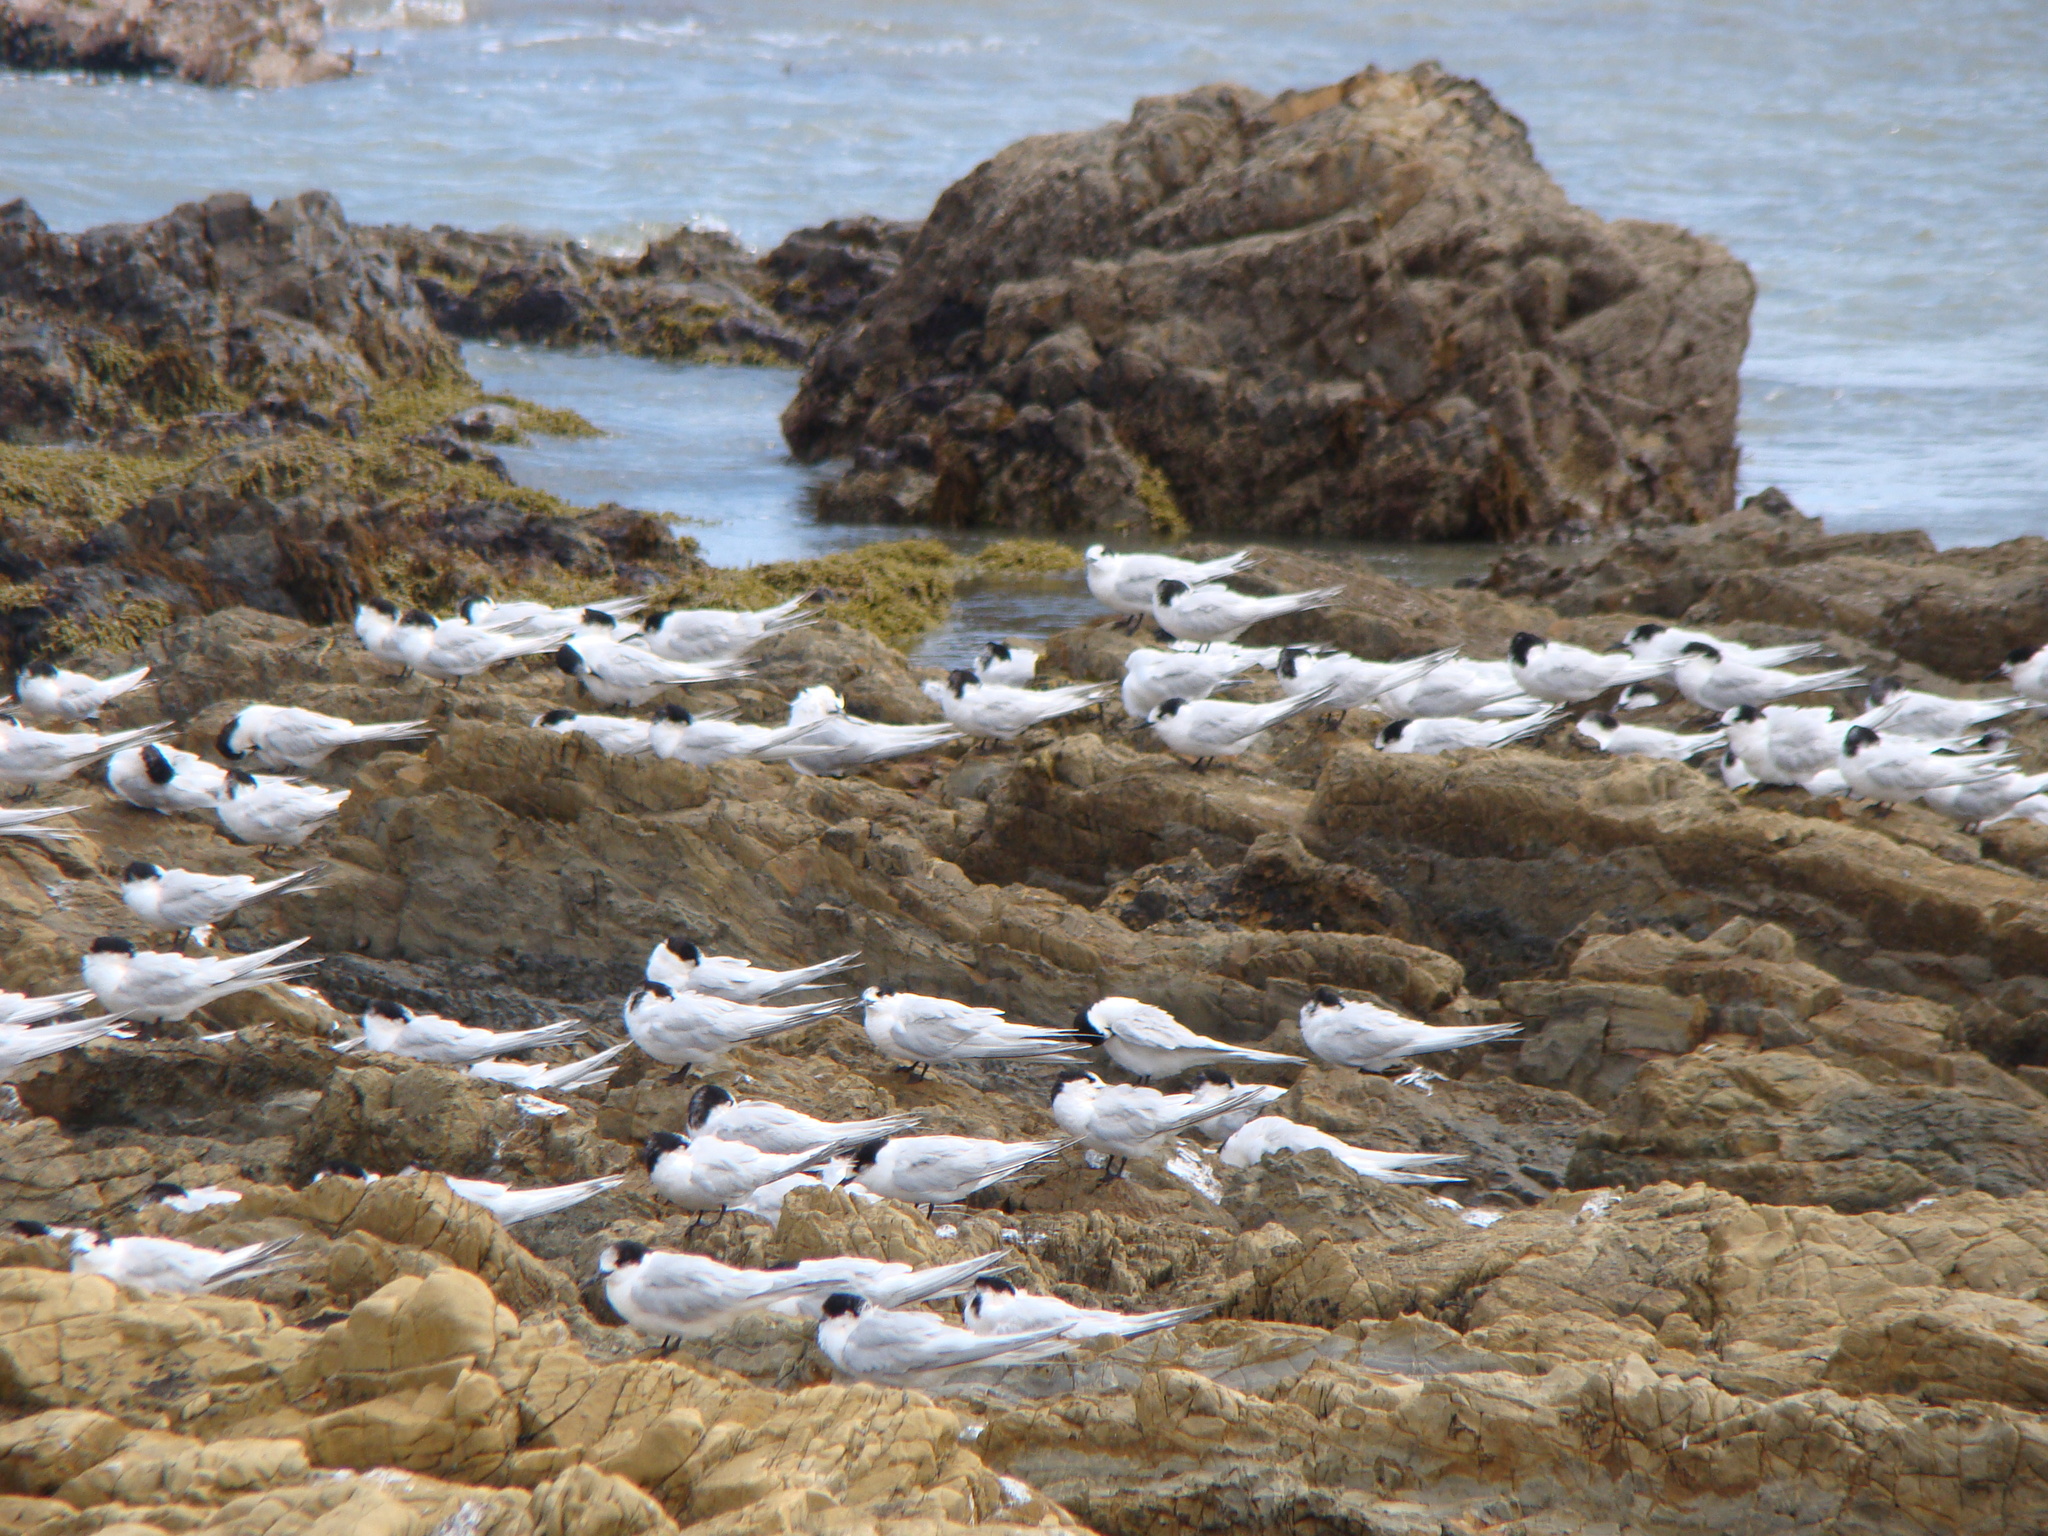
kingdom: Animalia
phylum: Chordata
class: Aves
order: Charadriiformes
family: Laridae
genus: Sterna
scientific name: Sterna striata
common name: White-fronted tern
